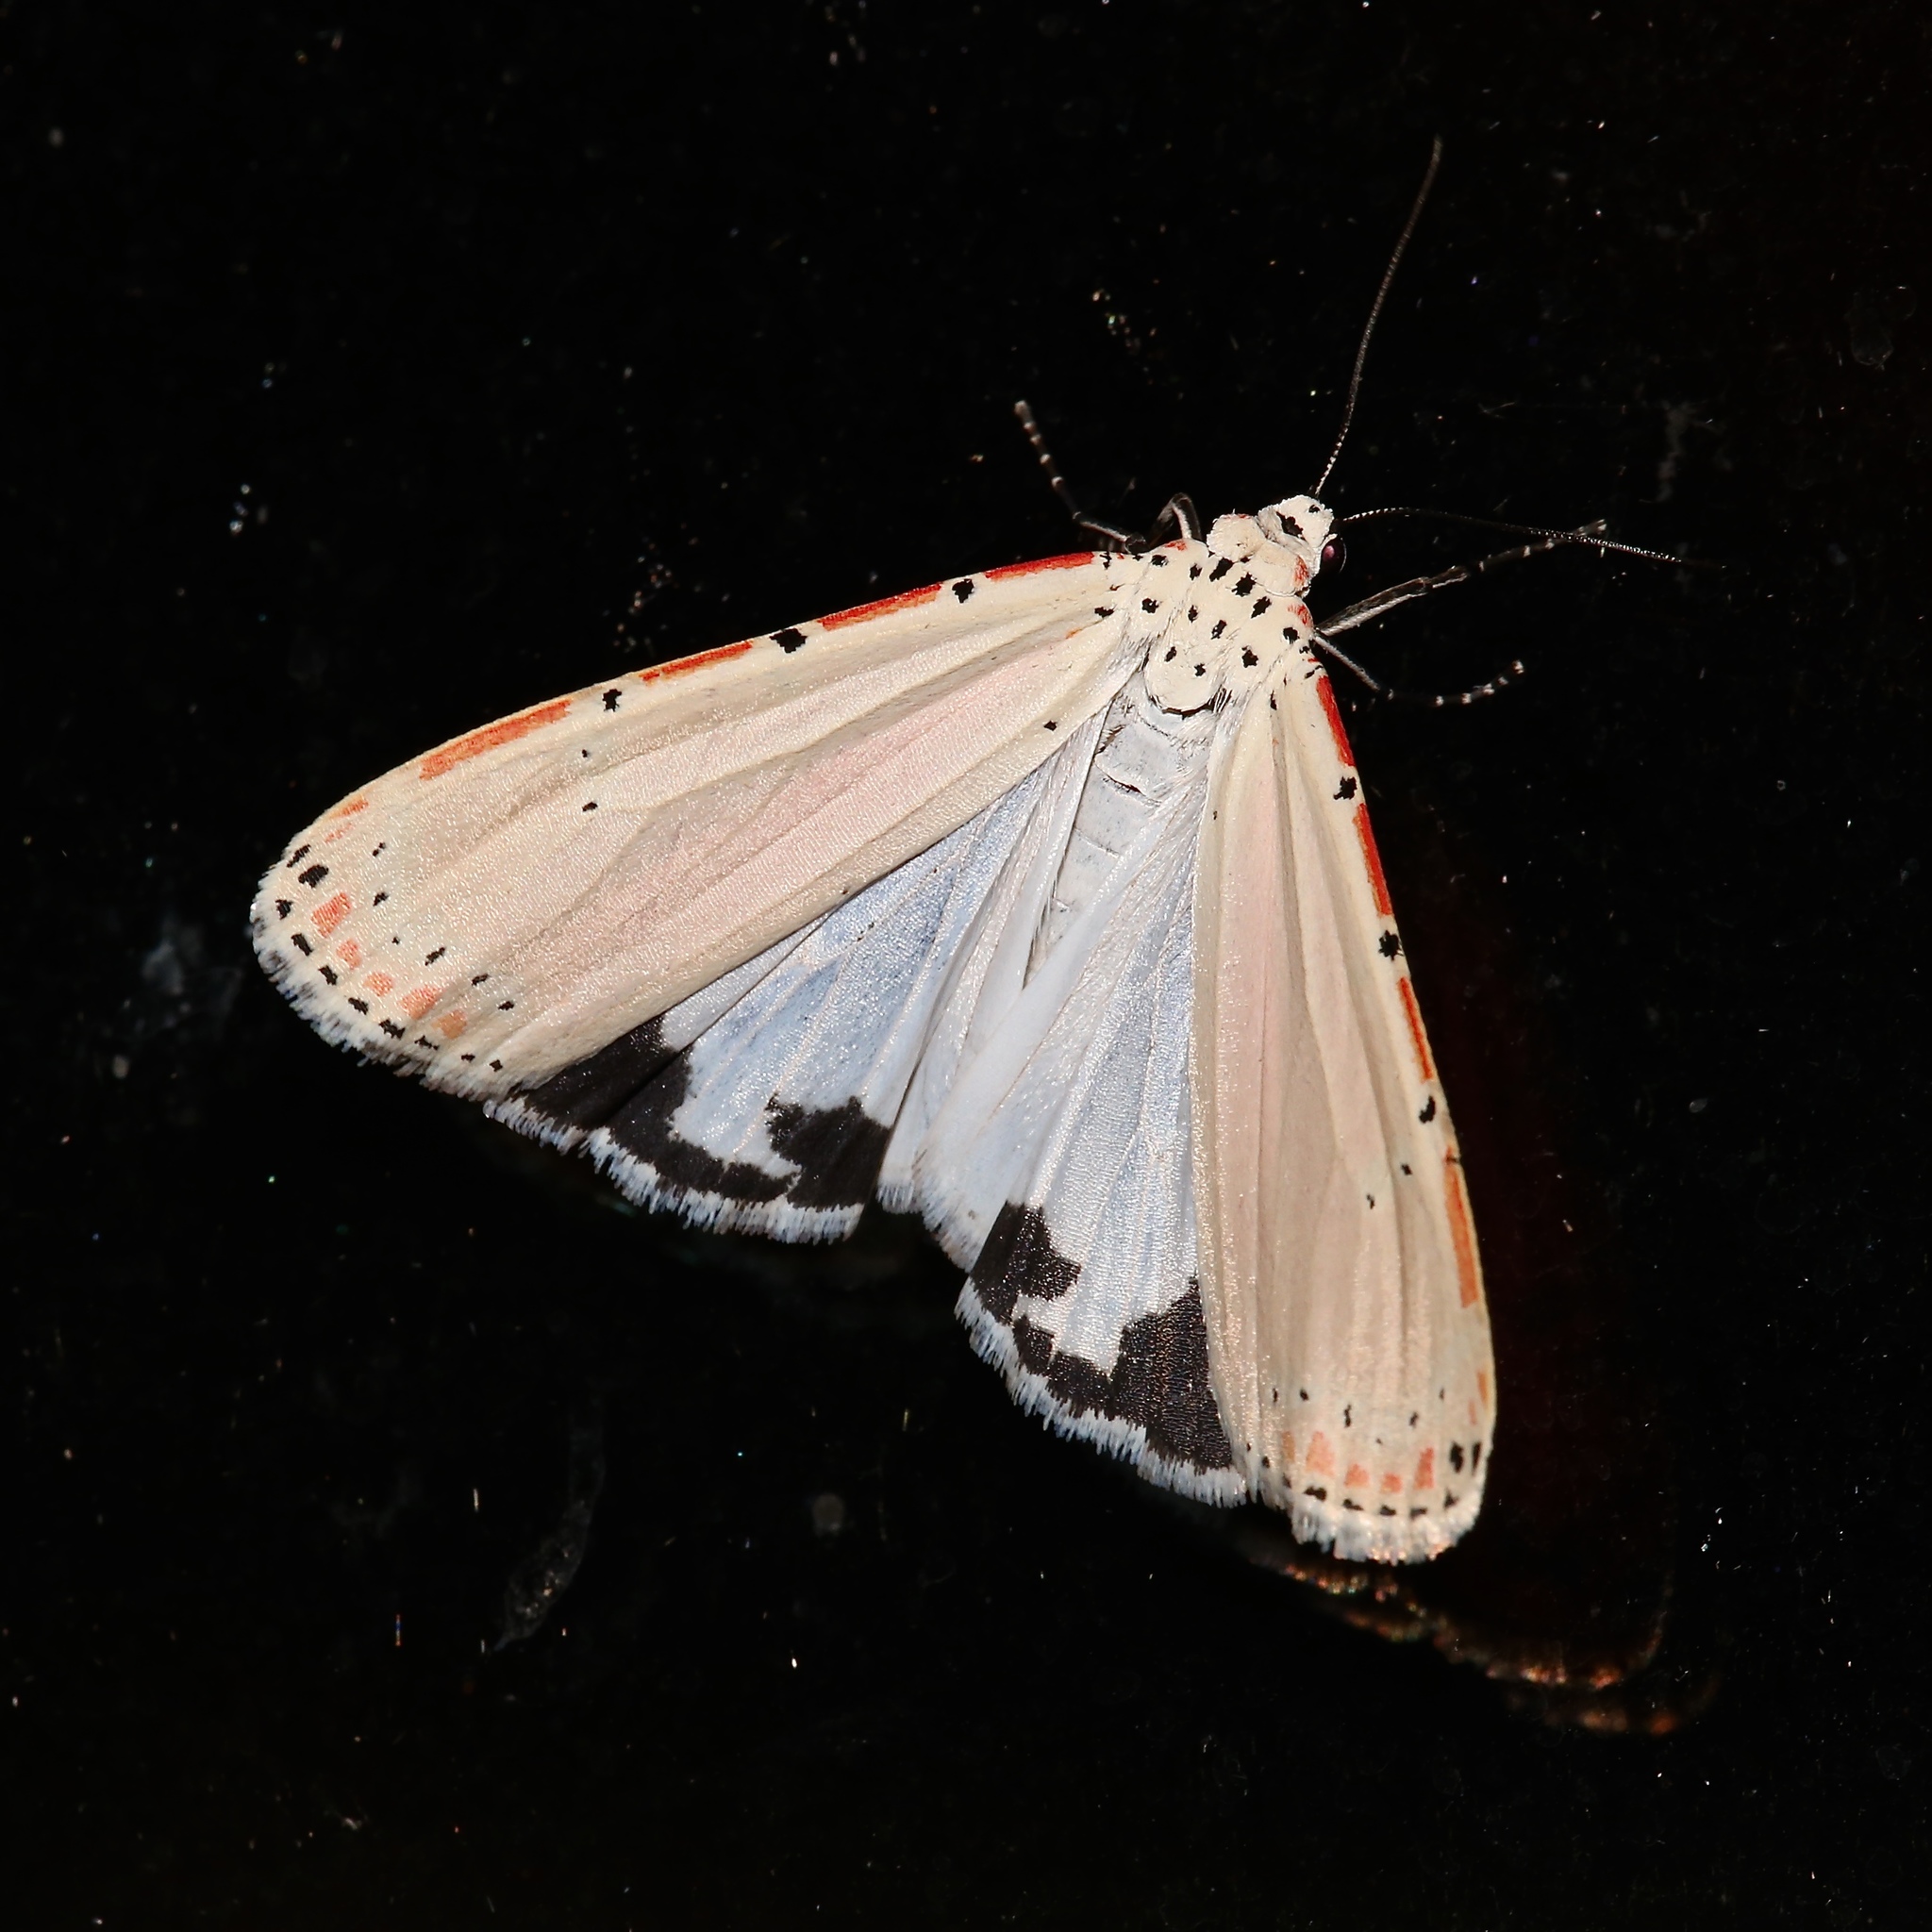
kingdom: Animalia
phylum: Arthropoda
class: Insecta
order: Lepidoptera
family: Erebidae
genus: Utetheisa
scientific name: Utetheisa ornatrix
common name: Beautiful utetheisa
